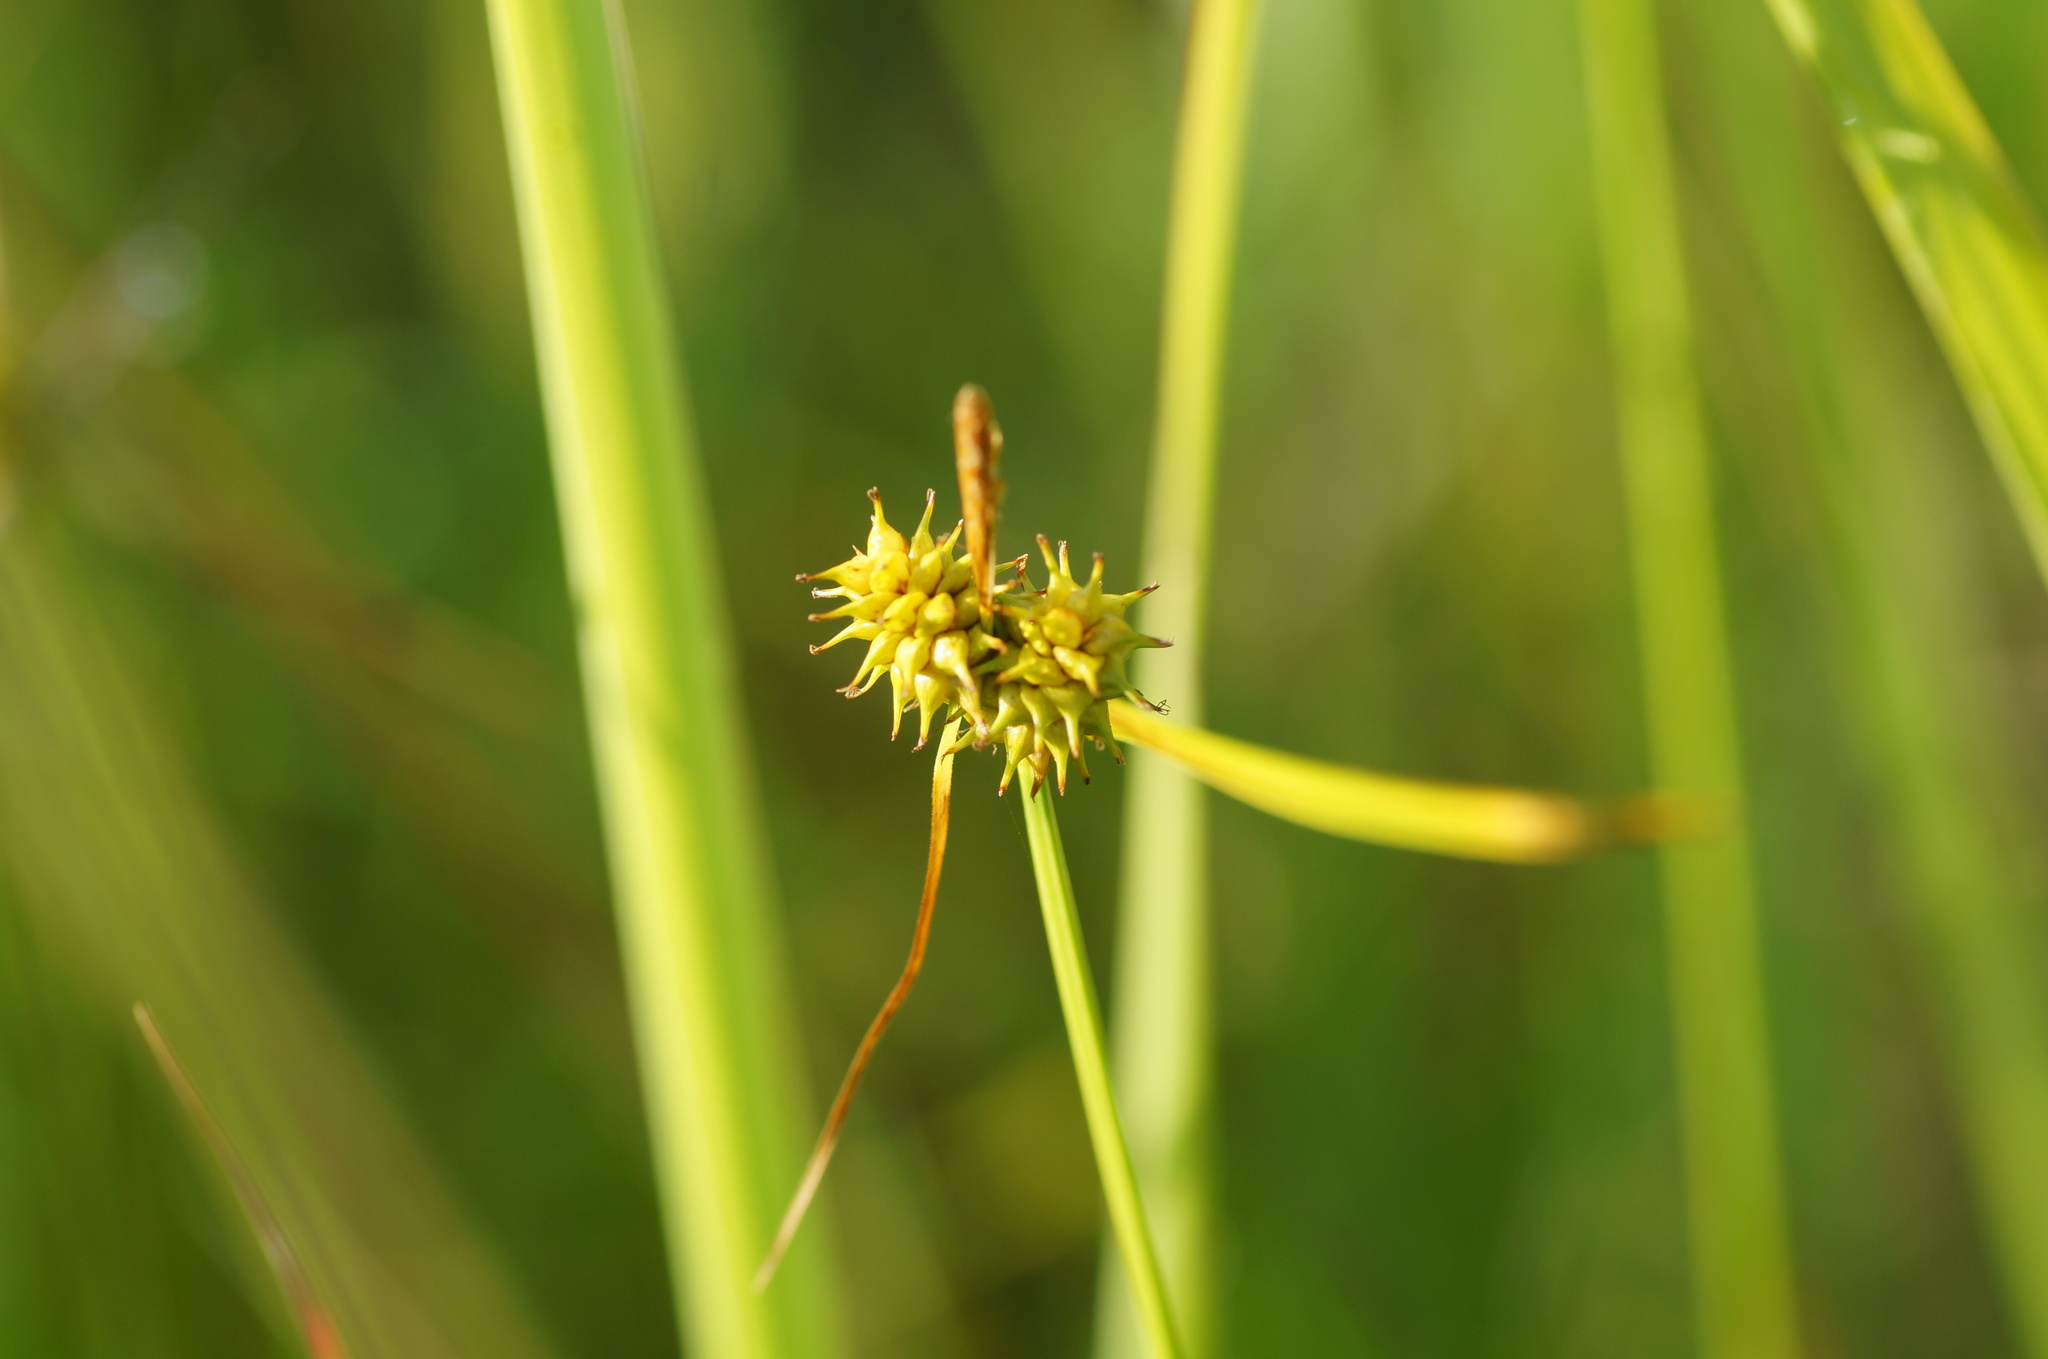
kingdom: Plantae
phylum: Tracheophyta
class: Liliopsida
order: Poales
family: Cyperaceae
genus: Carex
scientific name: Carex flava
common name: Large yellow-sedge
